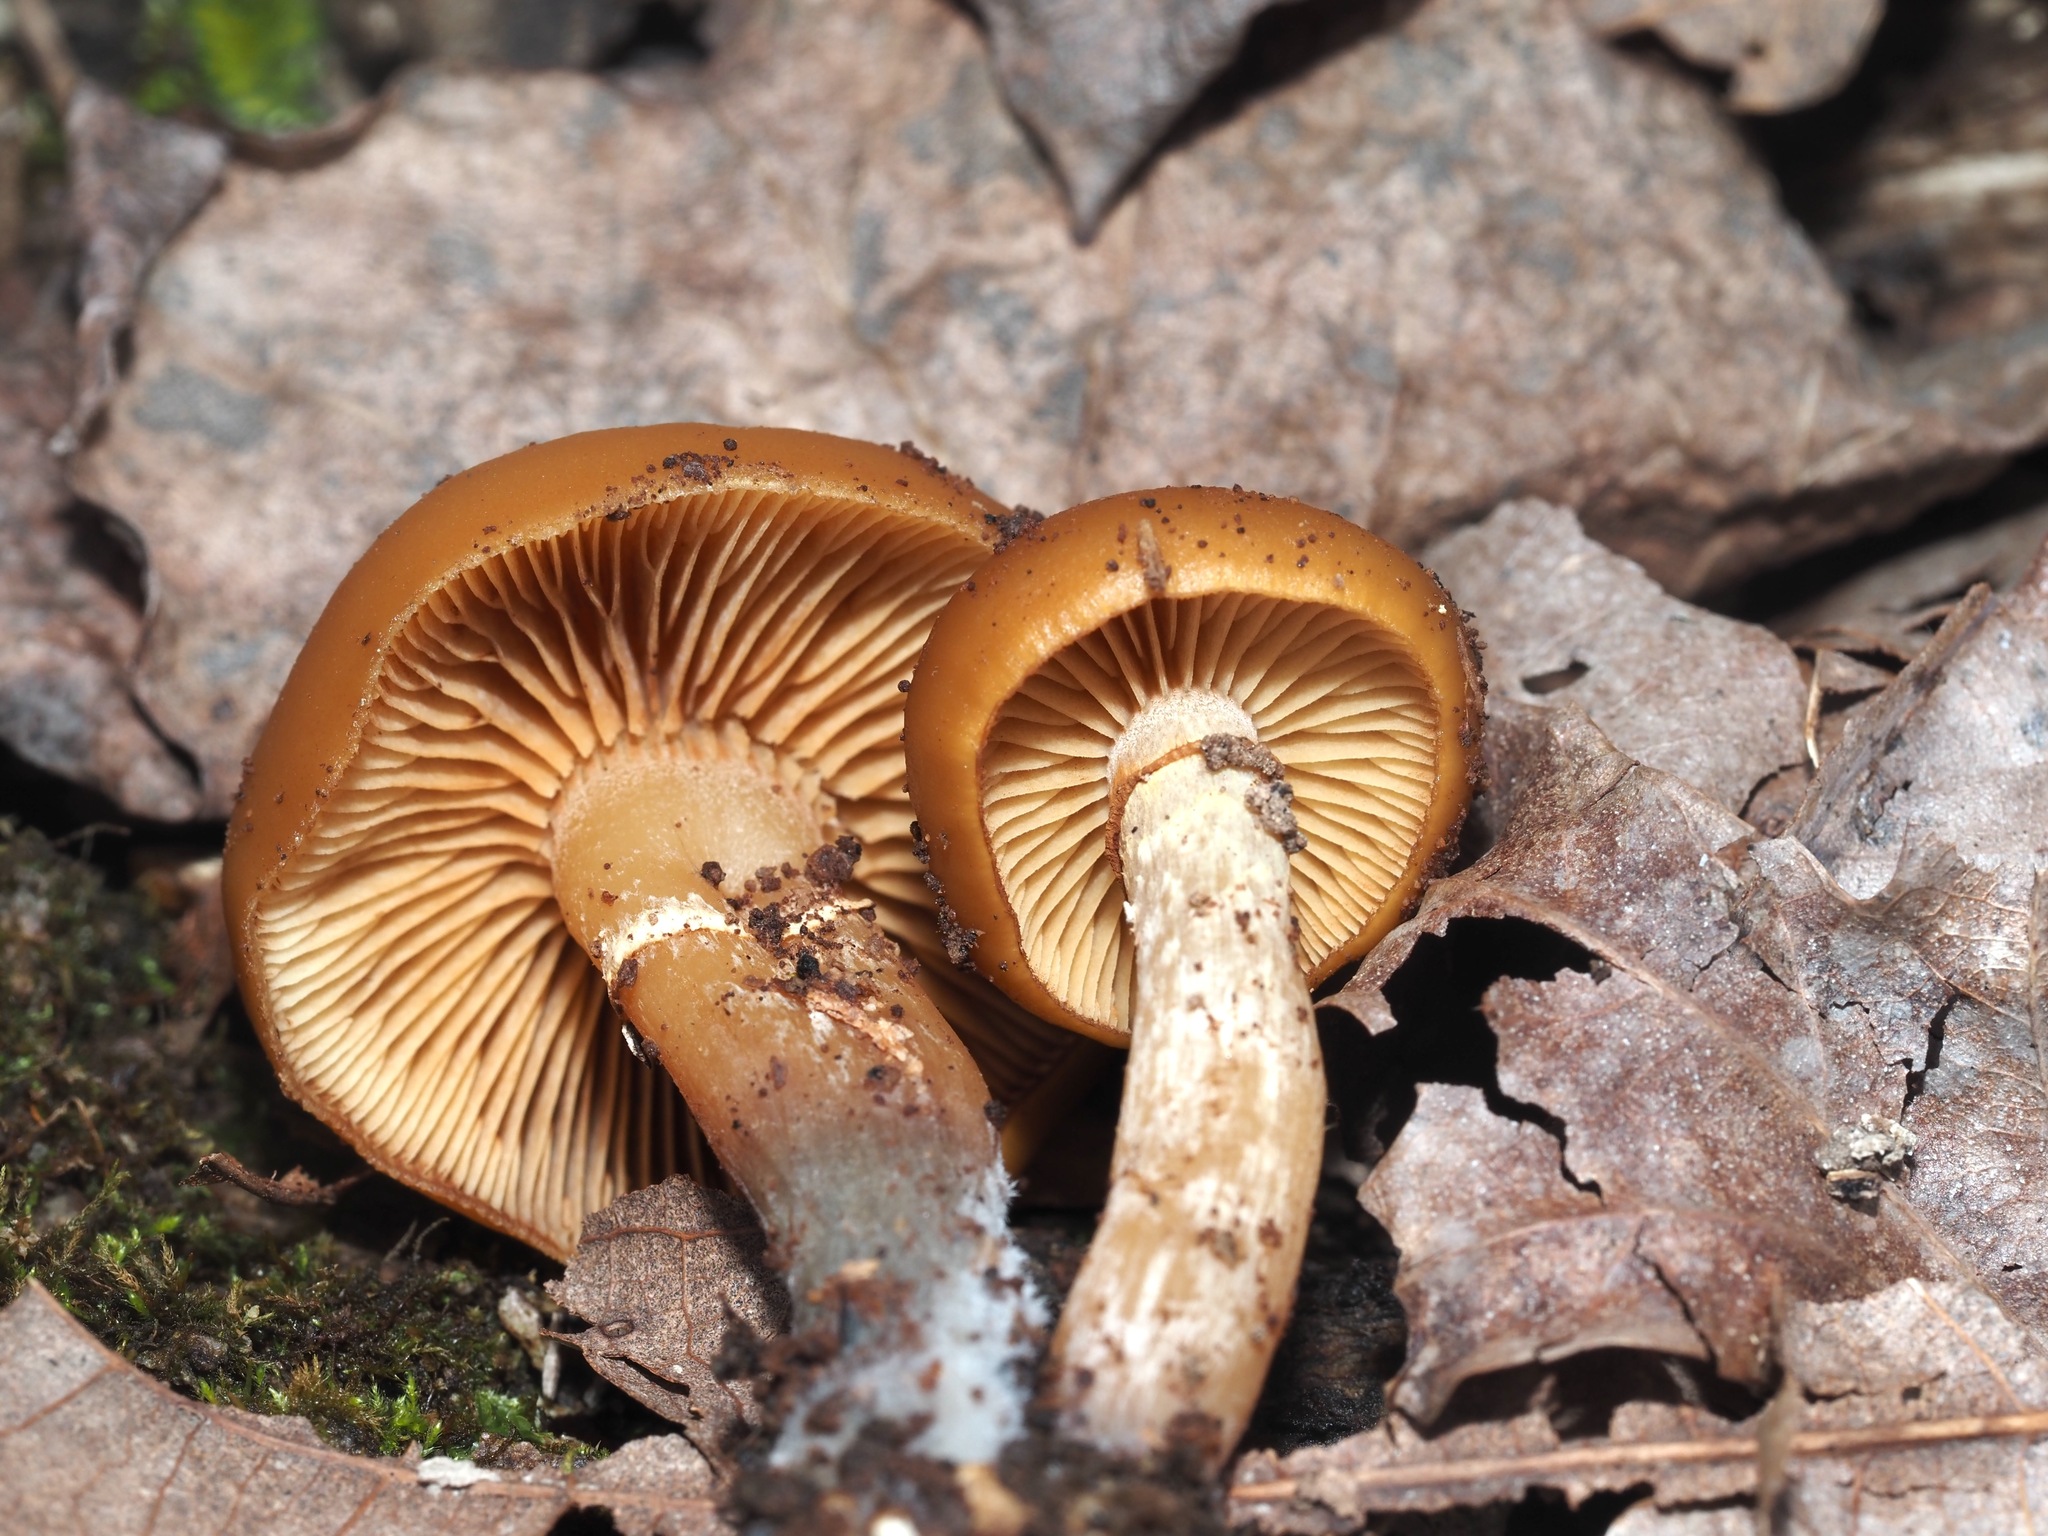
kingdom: Fungi
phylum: Basidiomycota
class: Agaricomycetes
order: Agaricales
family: Hymenogastraceae
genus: Galerina
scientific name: Galerina marginata
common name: Funeral bell
